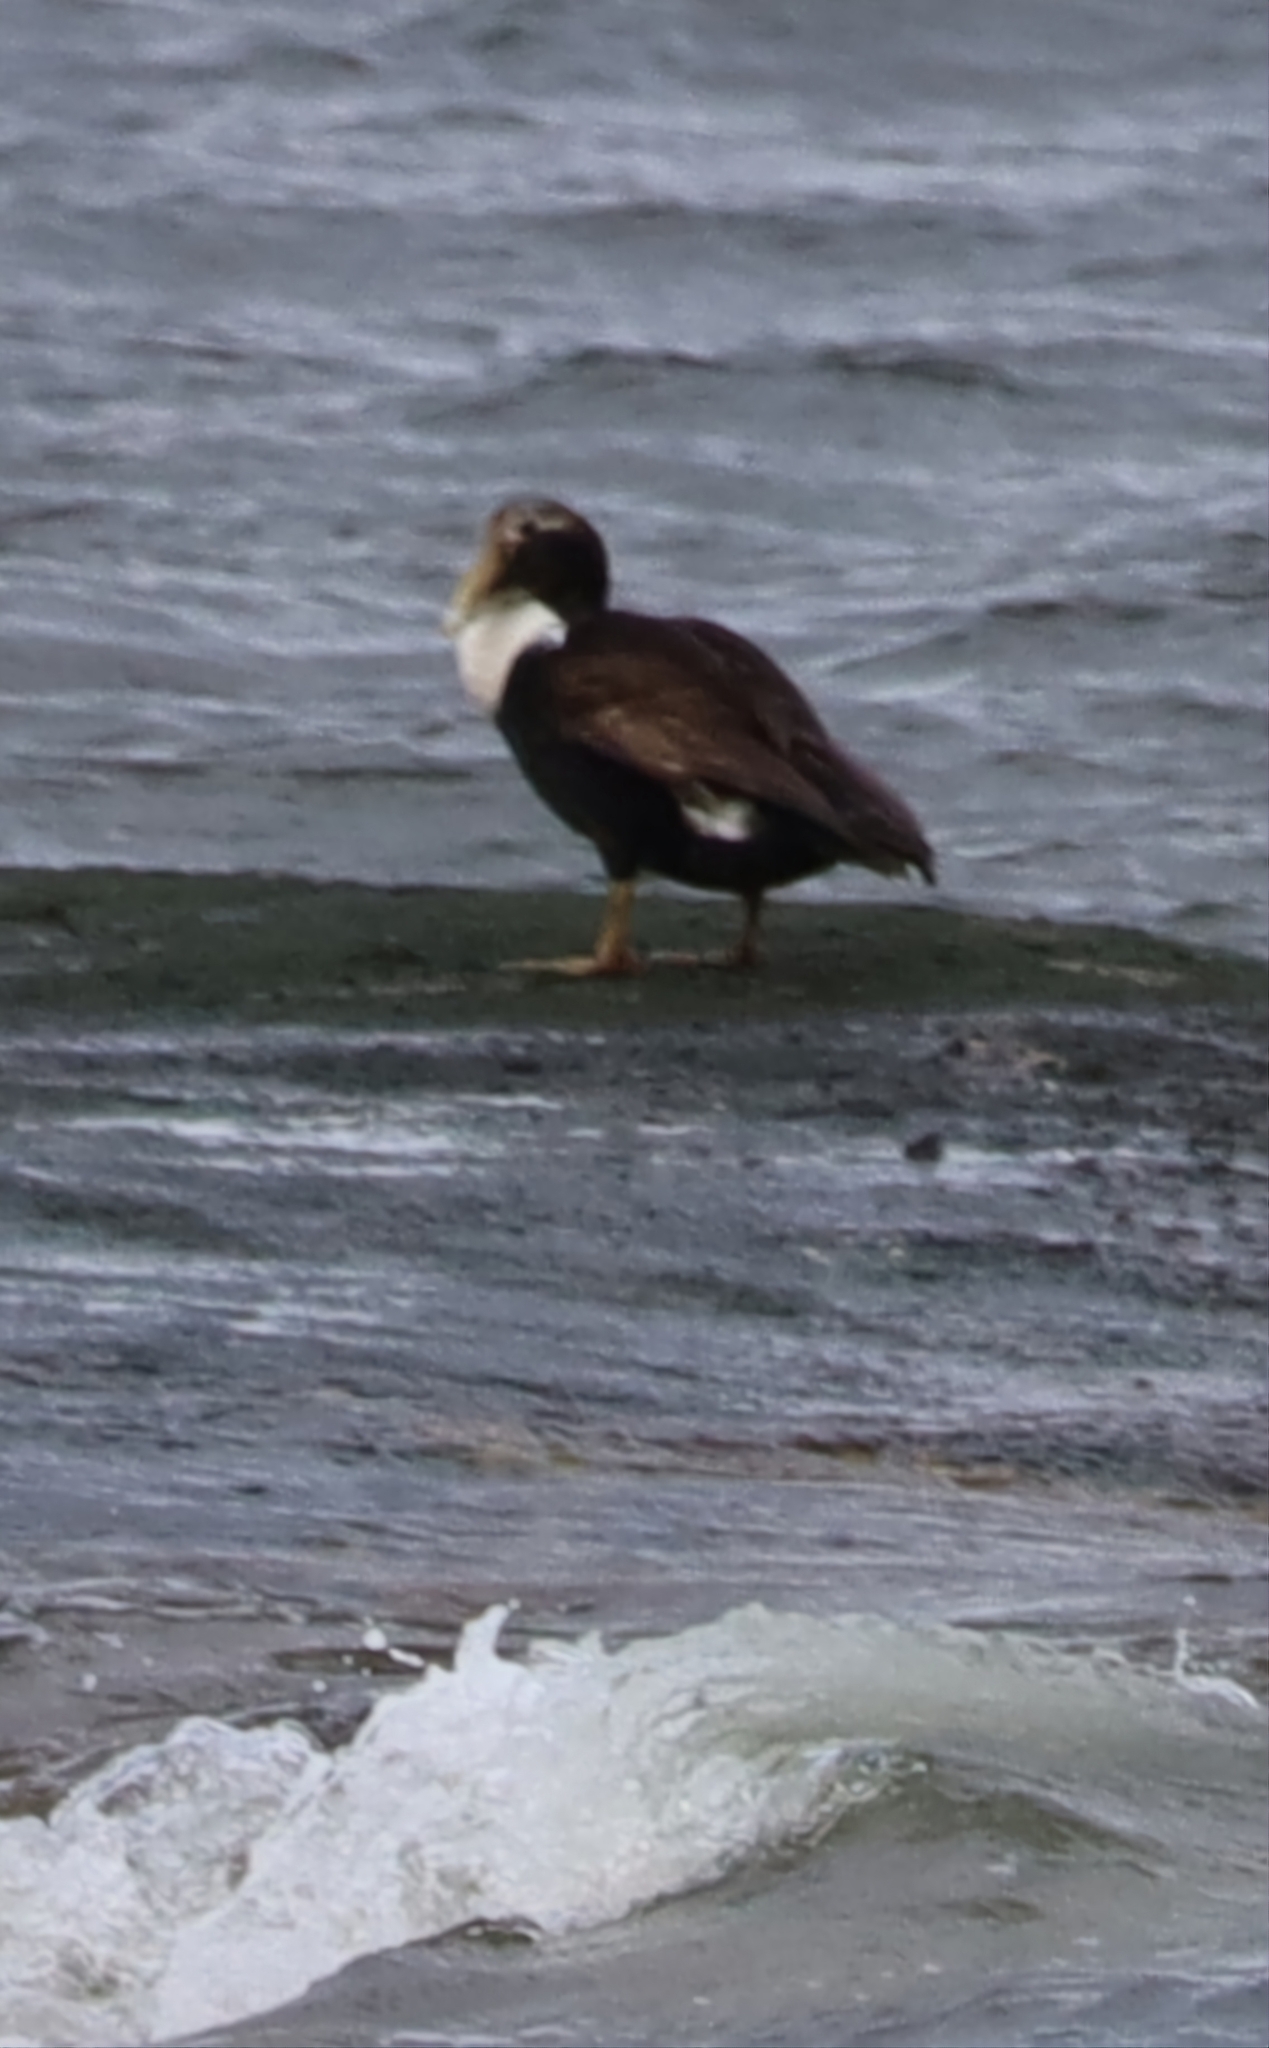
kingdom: Animalia
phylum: Chordata
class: Aves
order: Anseriformes
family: Anatidae
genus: Somateria
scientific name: Somateria mollissima
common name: Common eider
